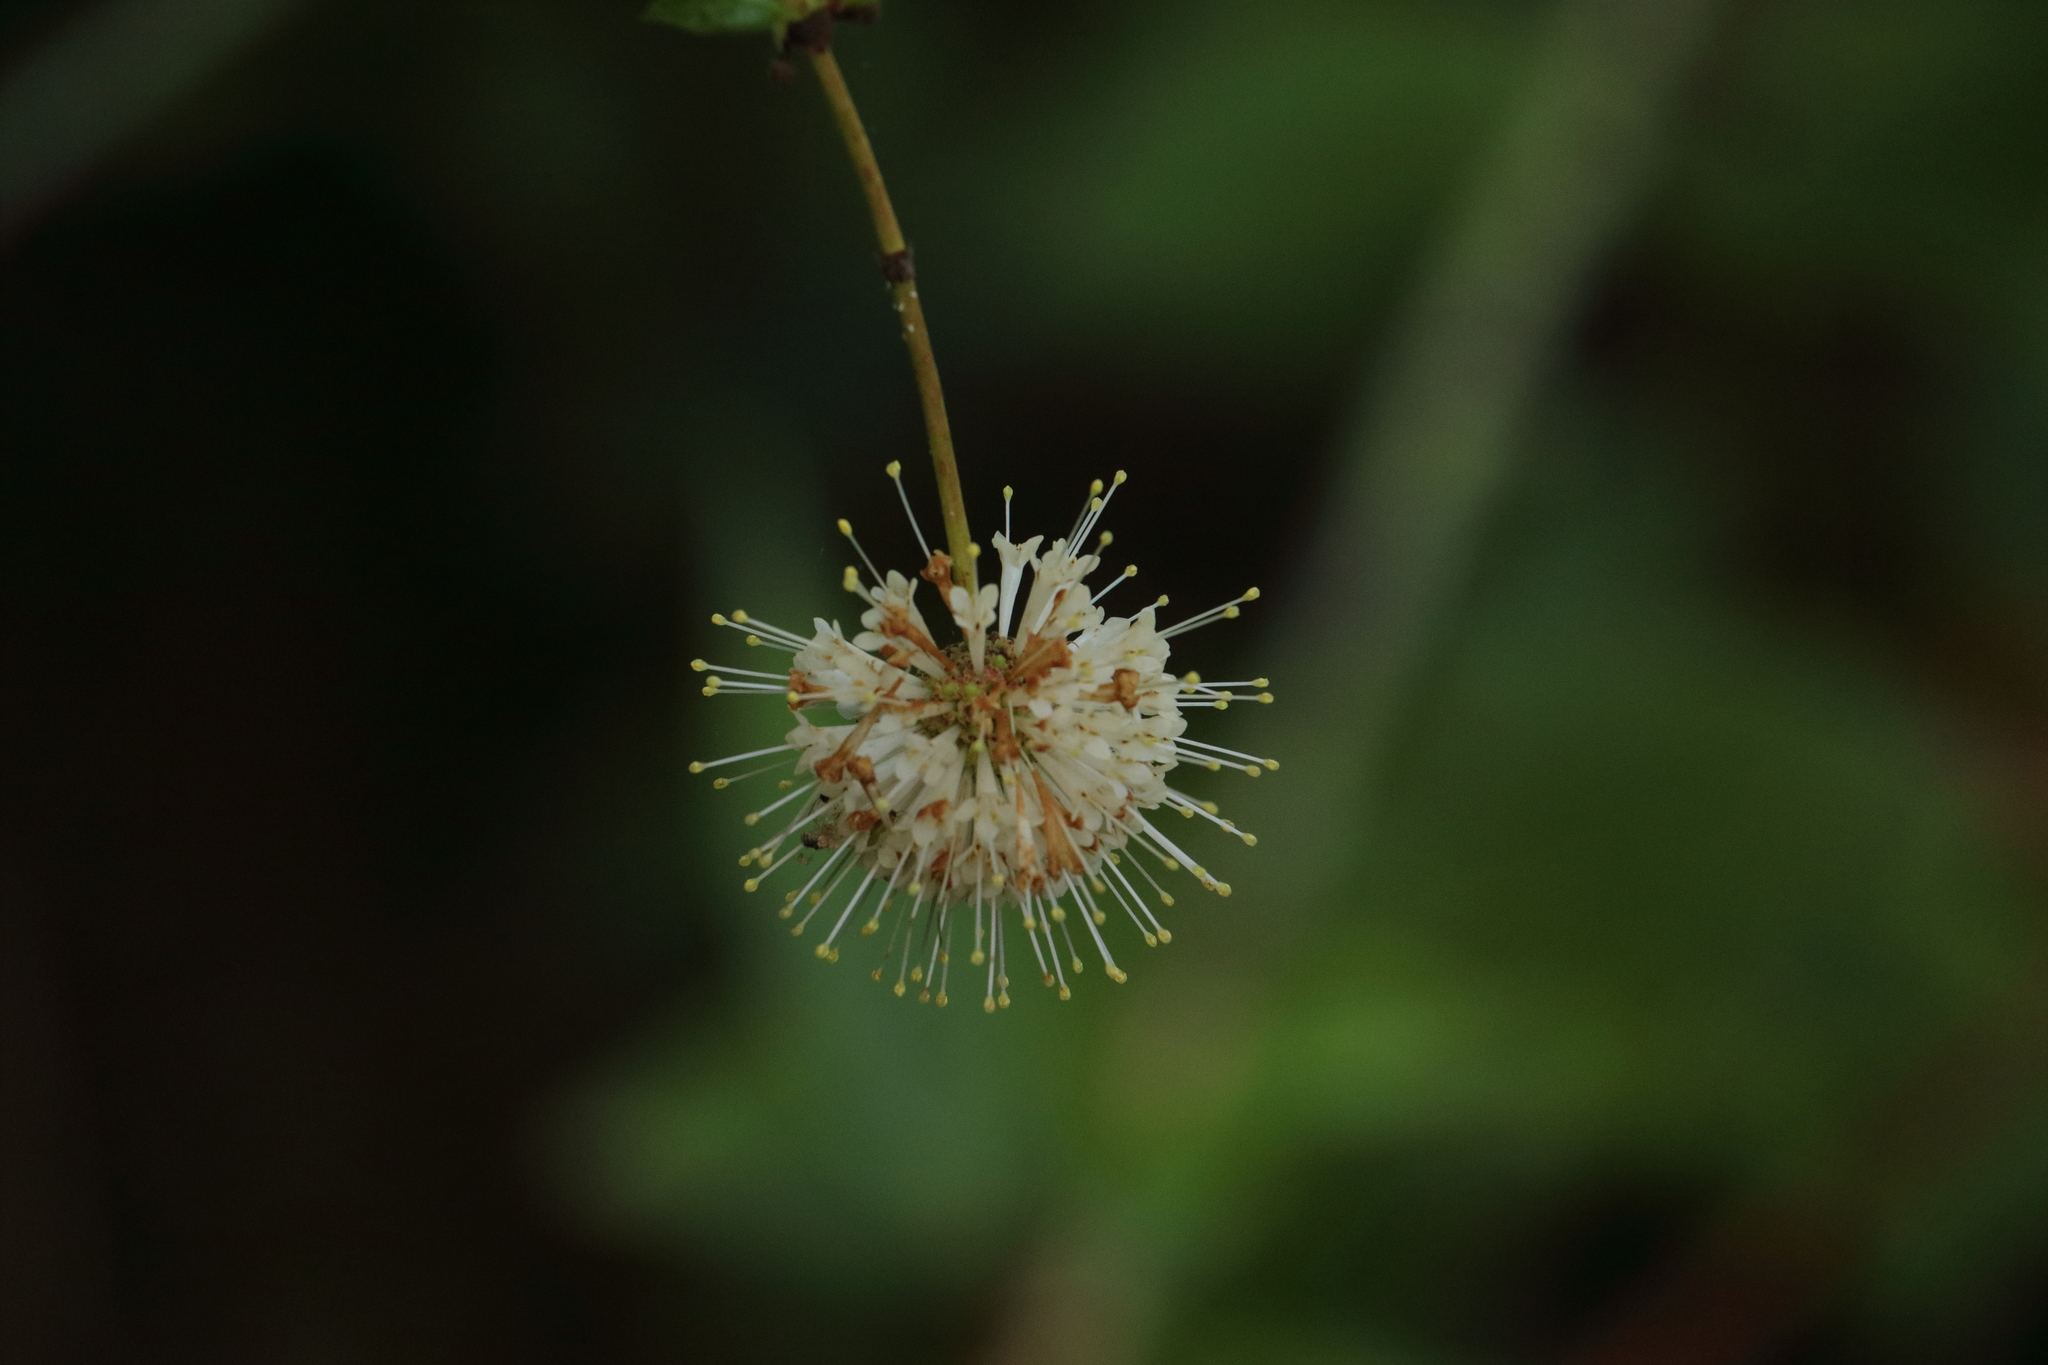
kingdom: Plantae
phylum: Tracheophyta
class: Magnoliopsida
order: Gentianales
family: Rubiaceae
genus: Cephalanthus
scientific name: Cephalanthus occidentalis
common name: Button-willow
